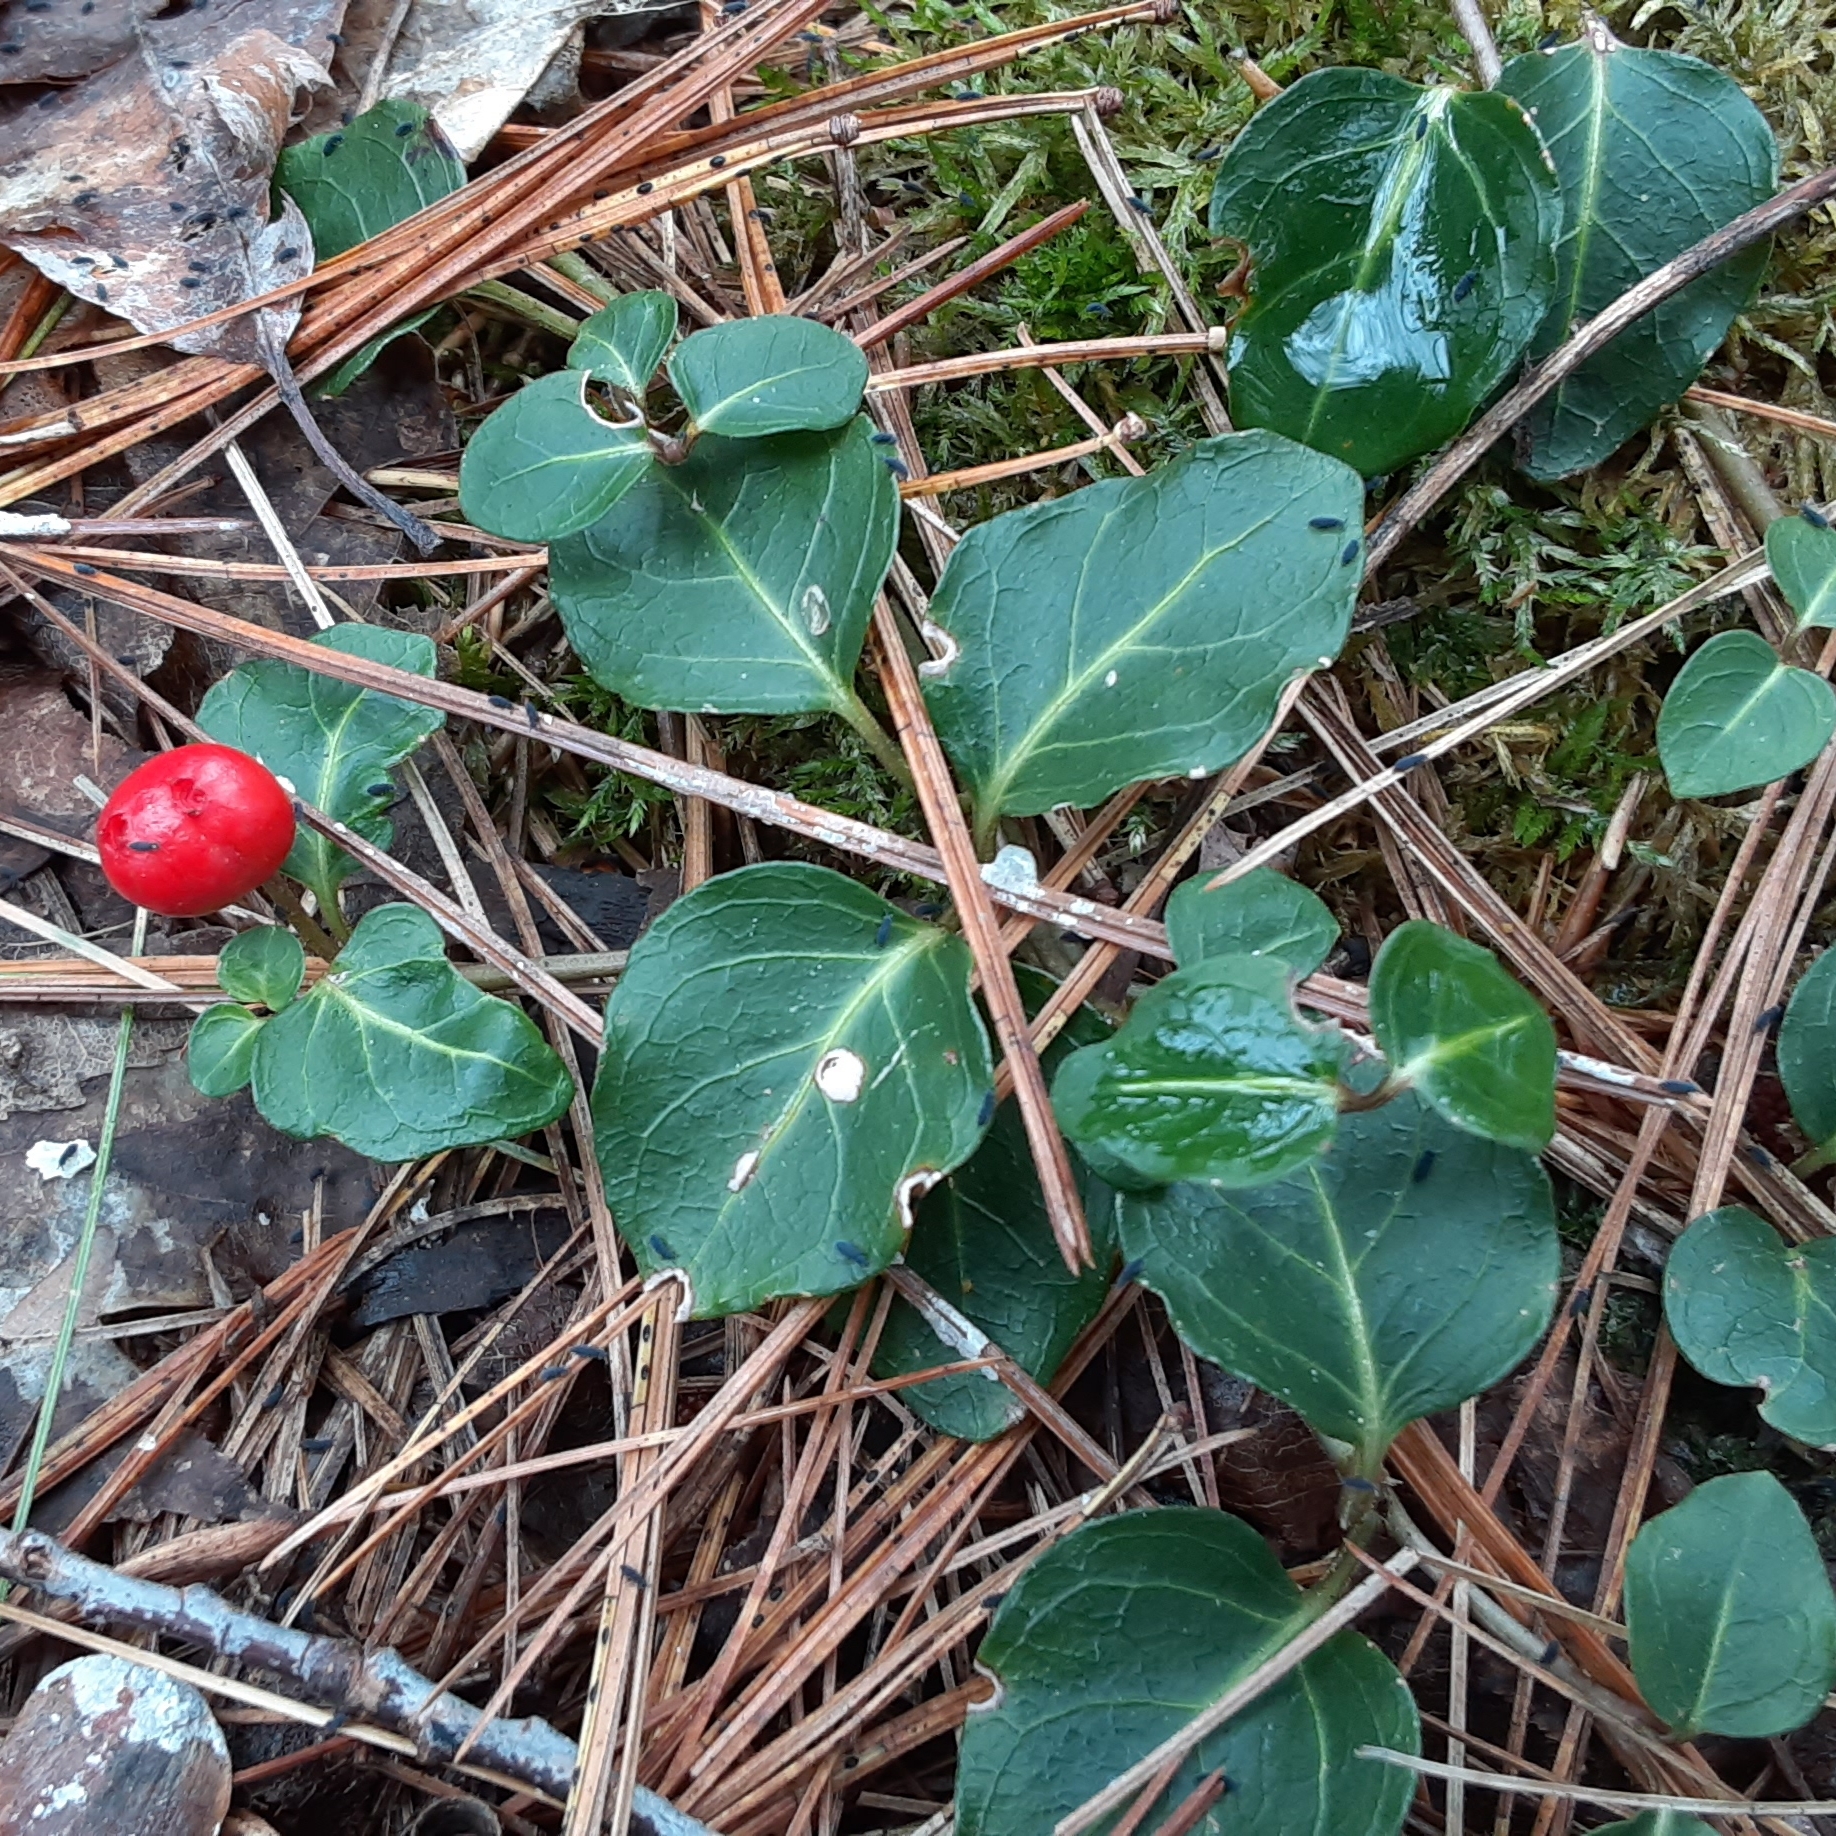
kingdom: Plantae
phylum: Tracheophyta
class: Magnoliopsida
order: Gentianales
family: Rubiaceae
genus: Mitchella
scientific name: Mitchella repens
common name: Partridge-berry
